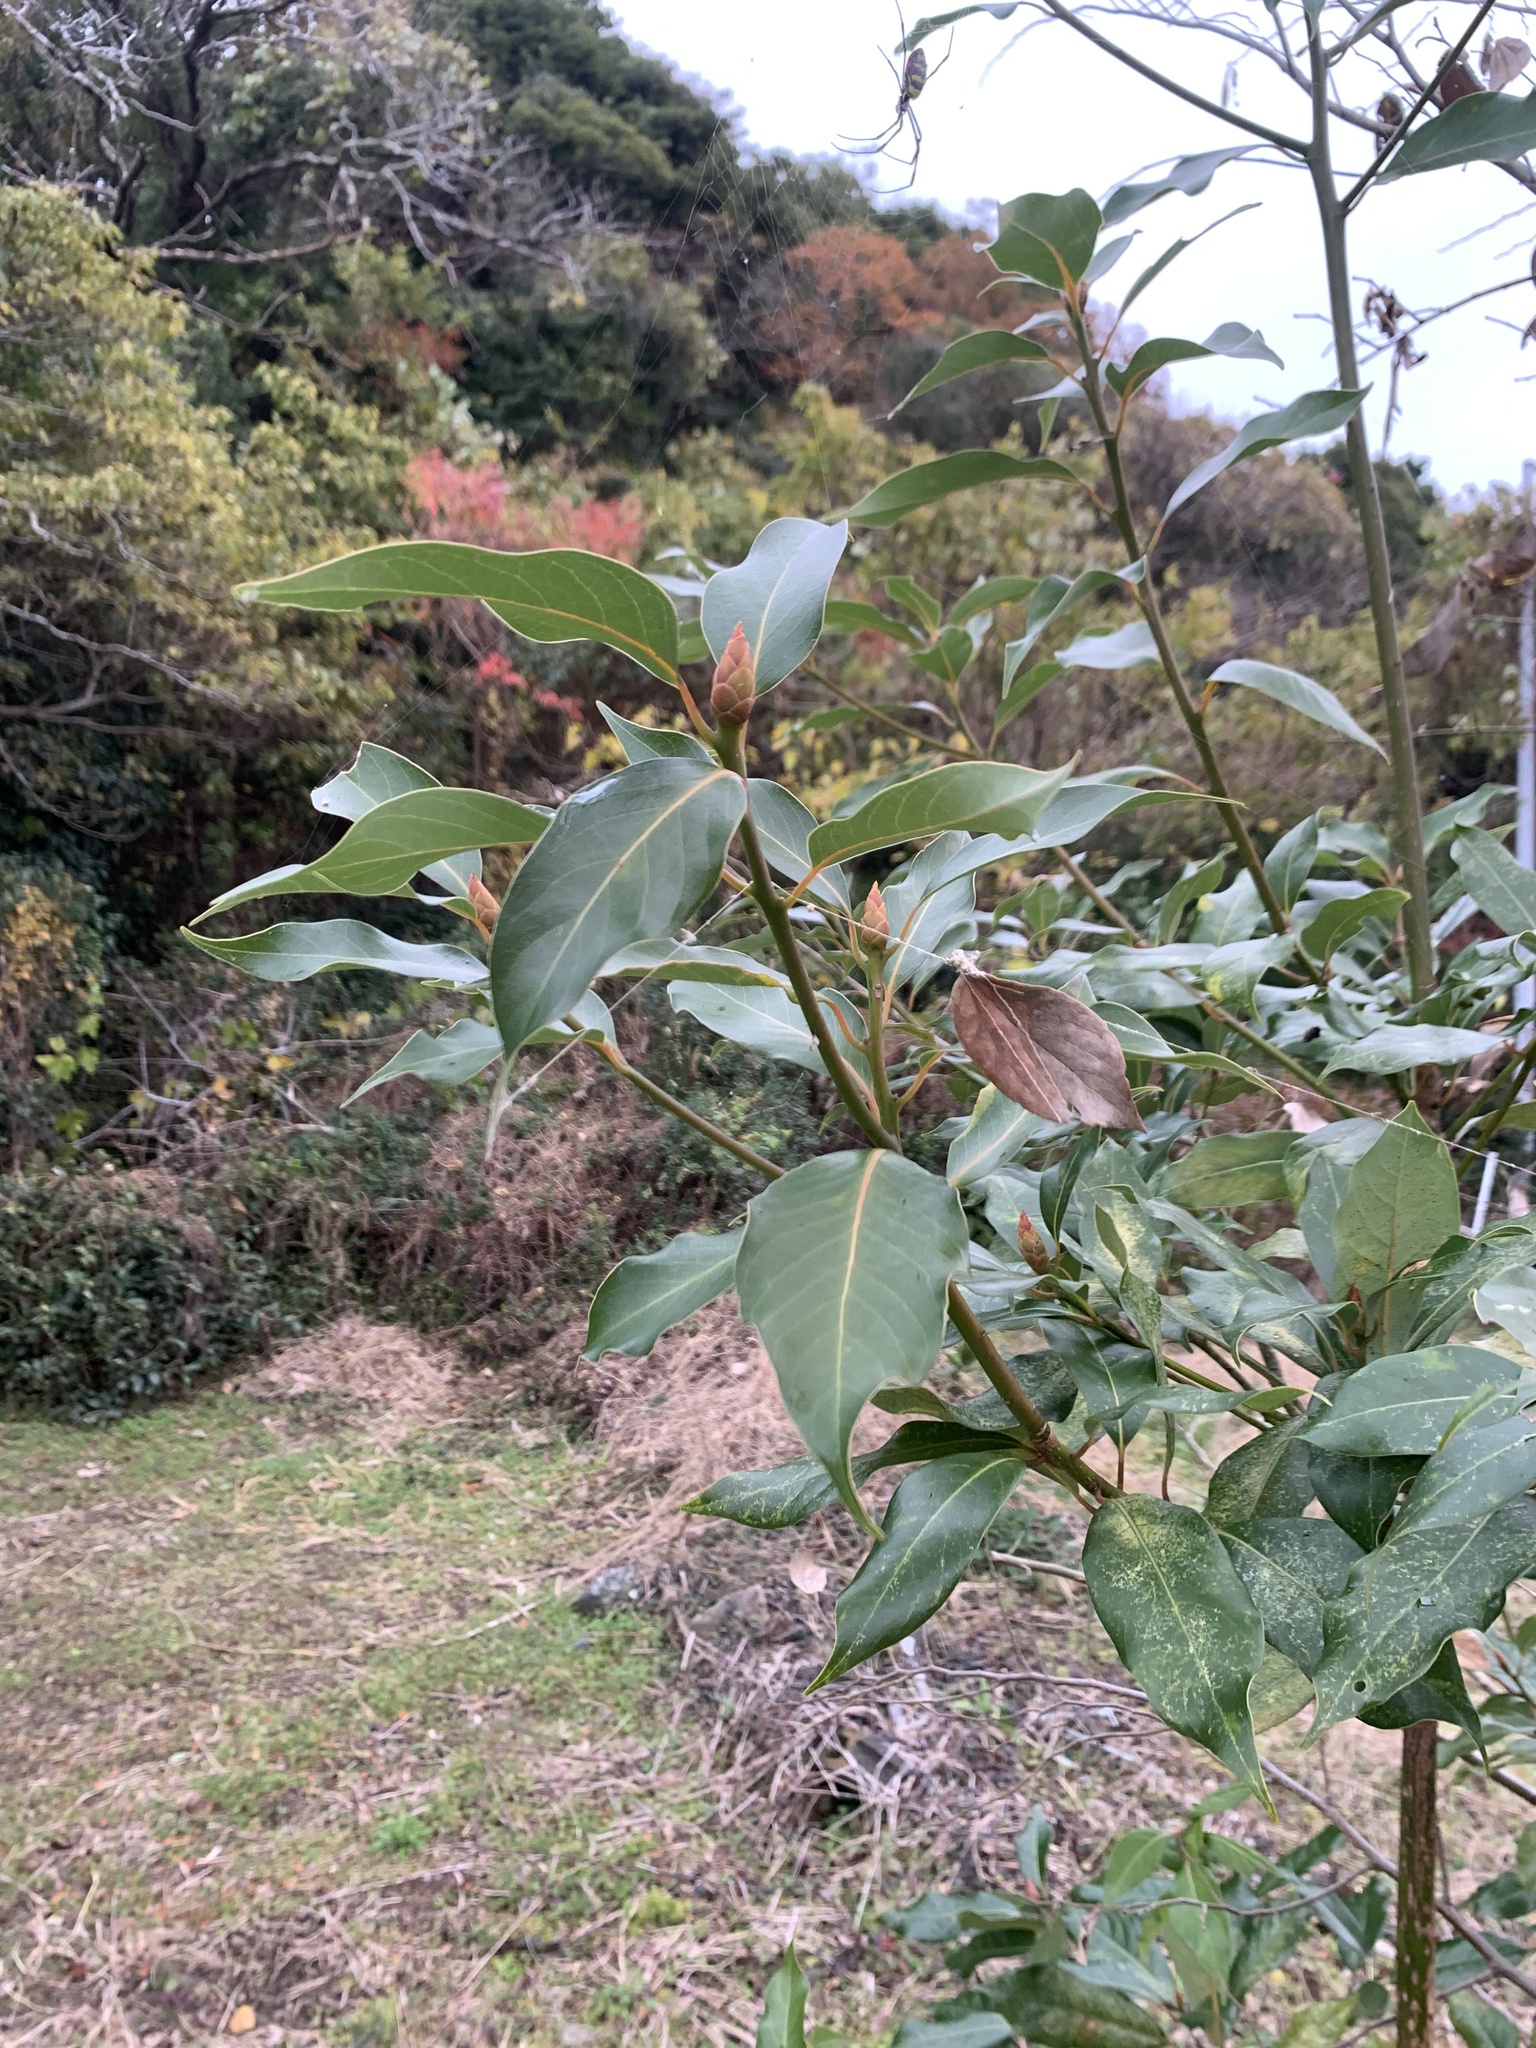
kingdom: Plantae
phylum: Tracheophyta
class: Magnoliopsida
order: Laurales
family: Lauraceae
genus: Machilus
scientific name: Machilus thunbergii
